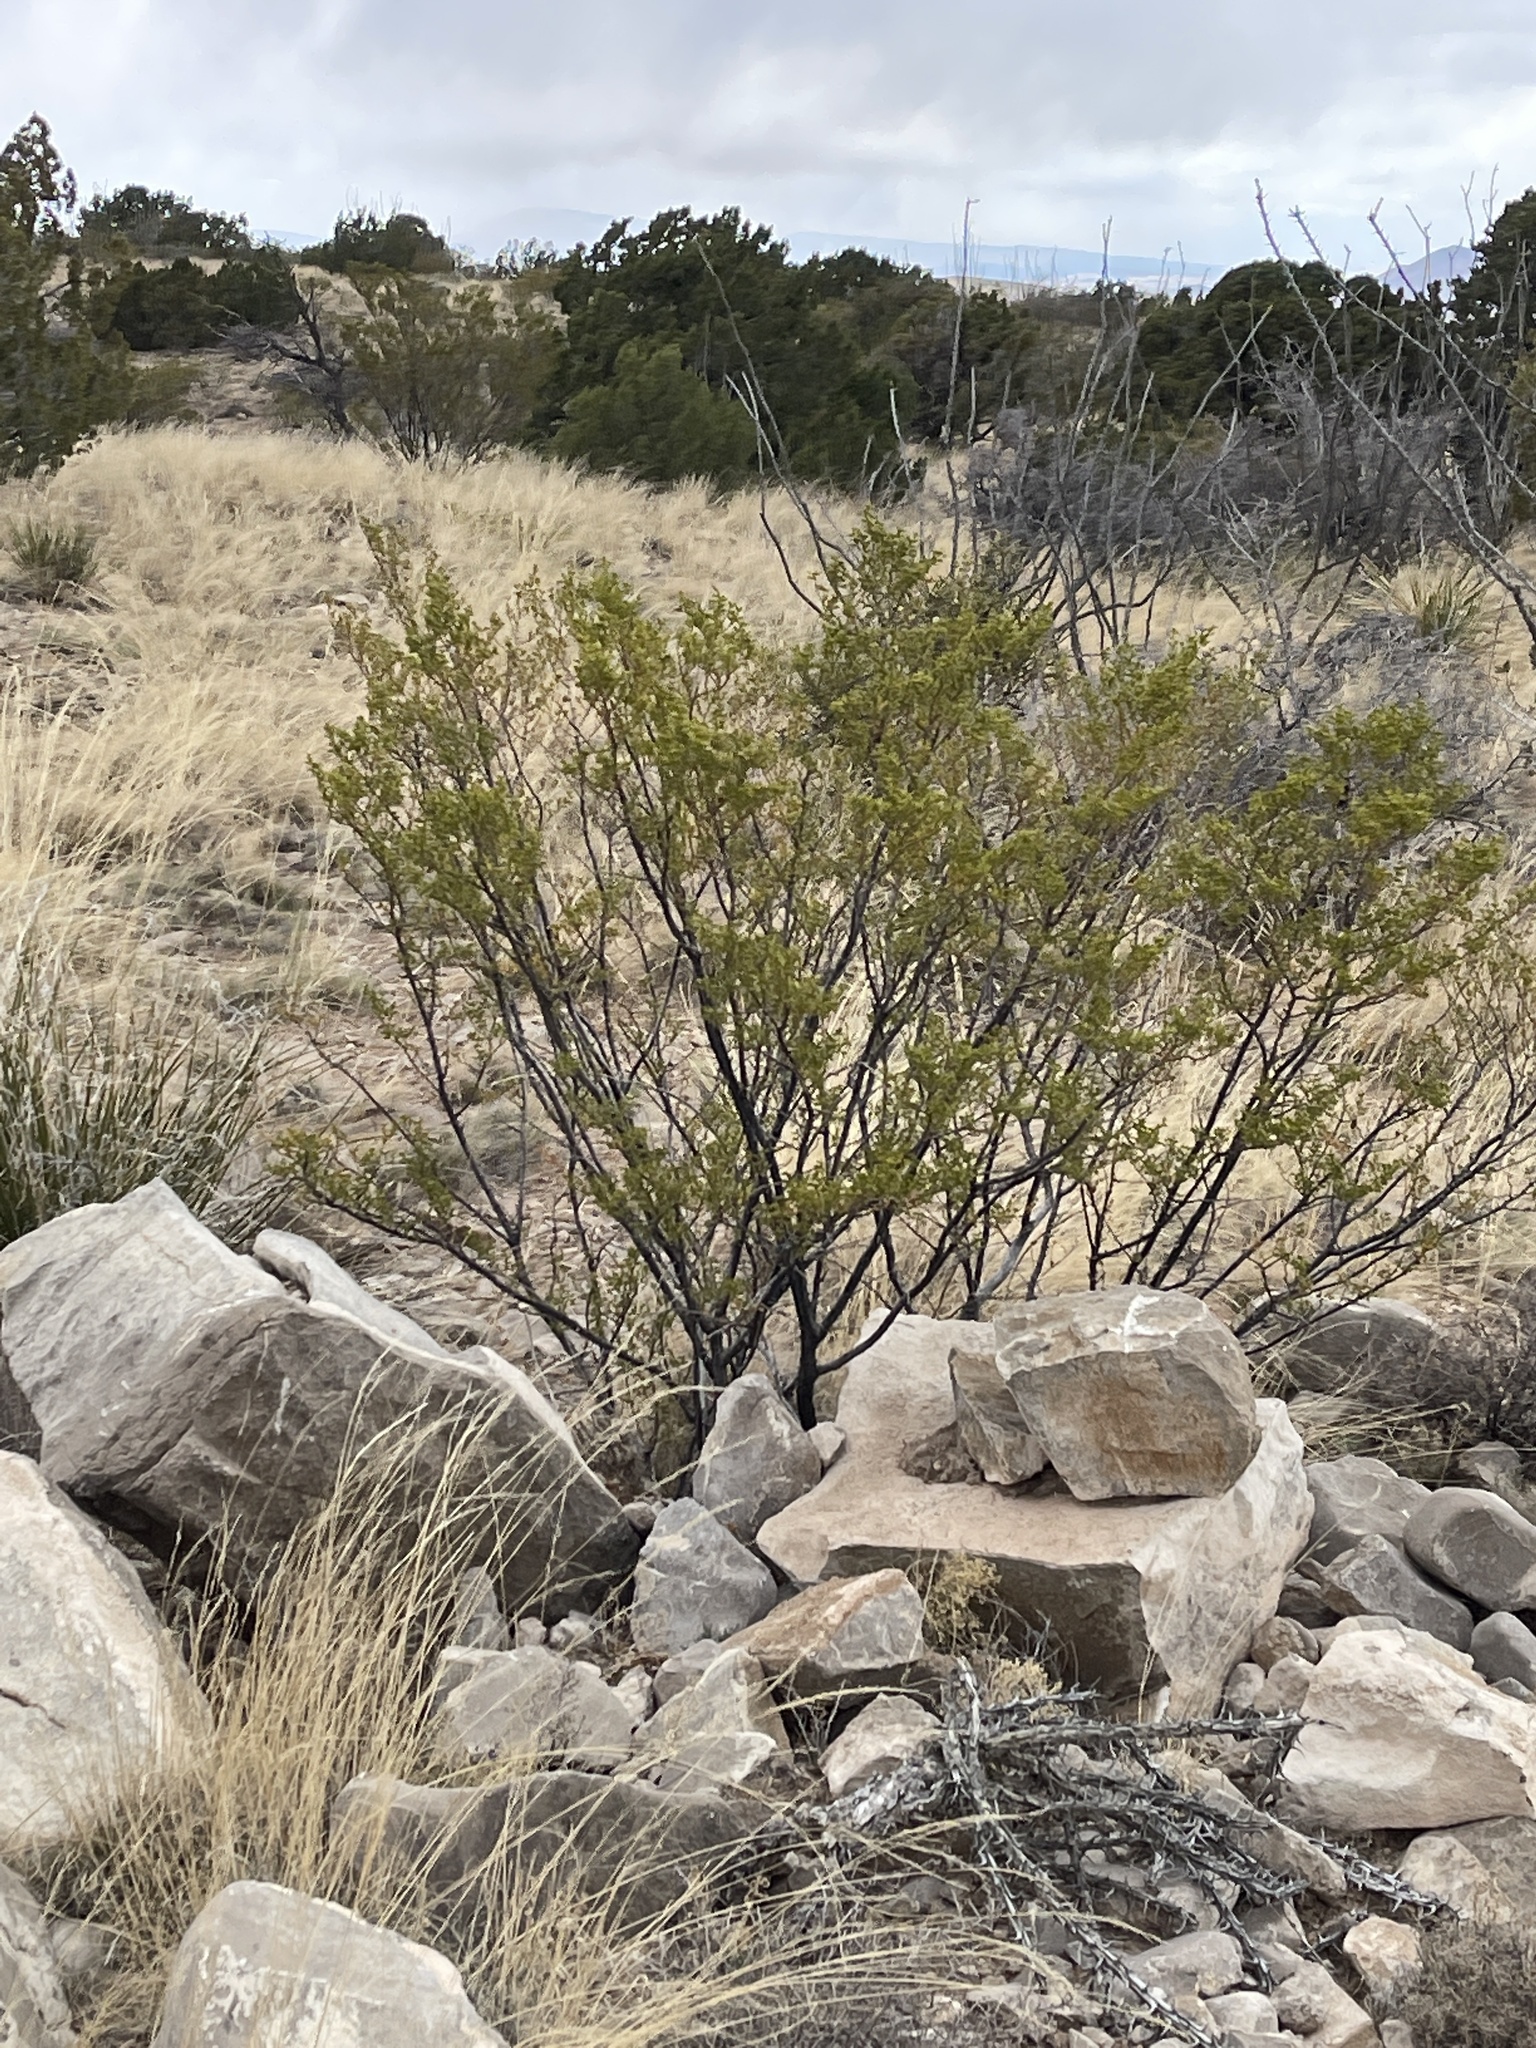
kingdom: Plantae
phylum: Tracheophyta
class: Magnoliopsida
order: Zygophyllales
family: Zygophyllaceae
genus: Larrea
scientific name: Larrea tridentata
